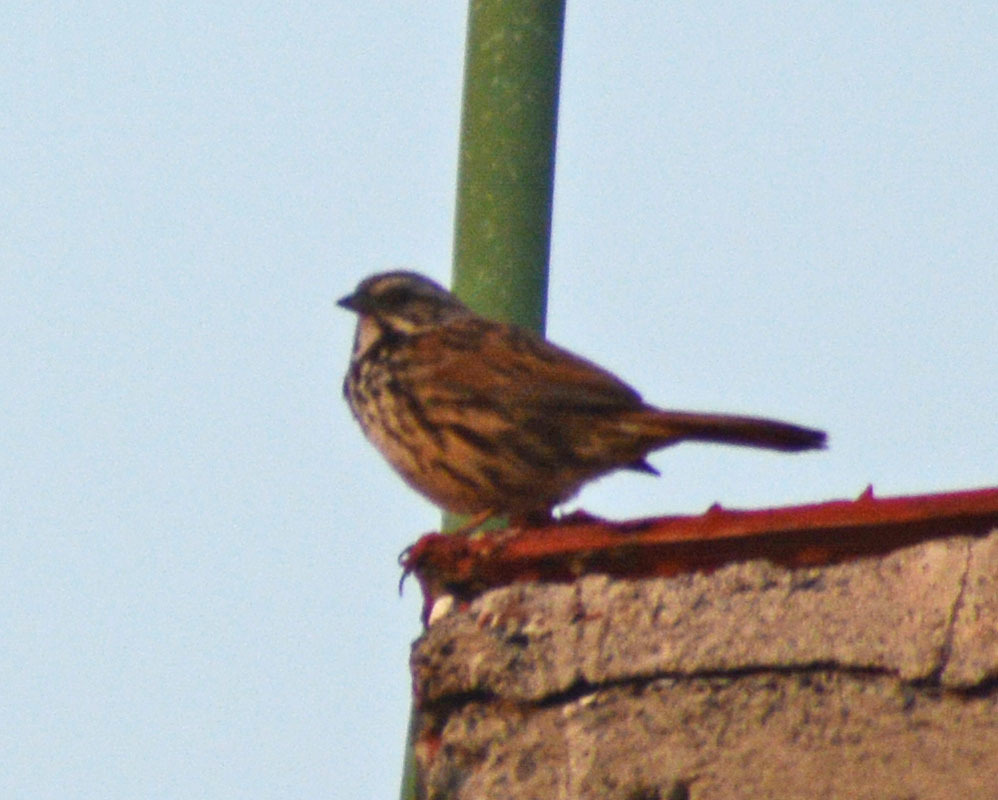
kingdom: Animalia
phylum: Chordata
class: Aves
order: Passeriformes
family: Passerellidae
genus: Melospiza
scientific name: Melospiza melodia
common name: Song sparrow
